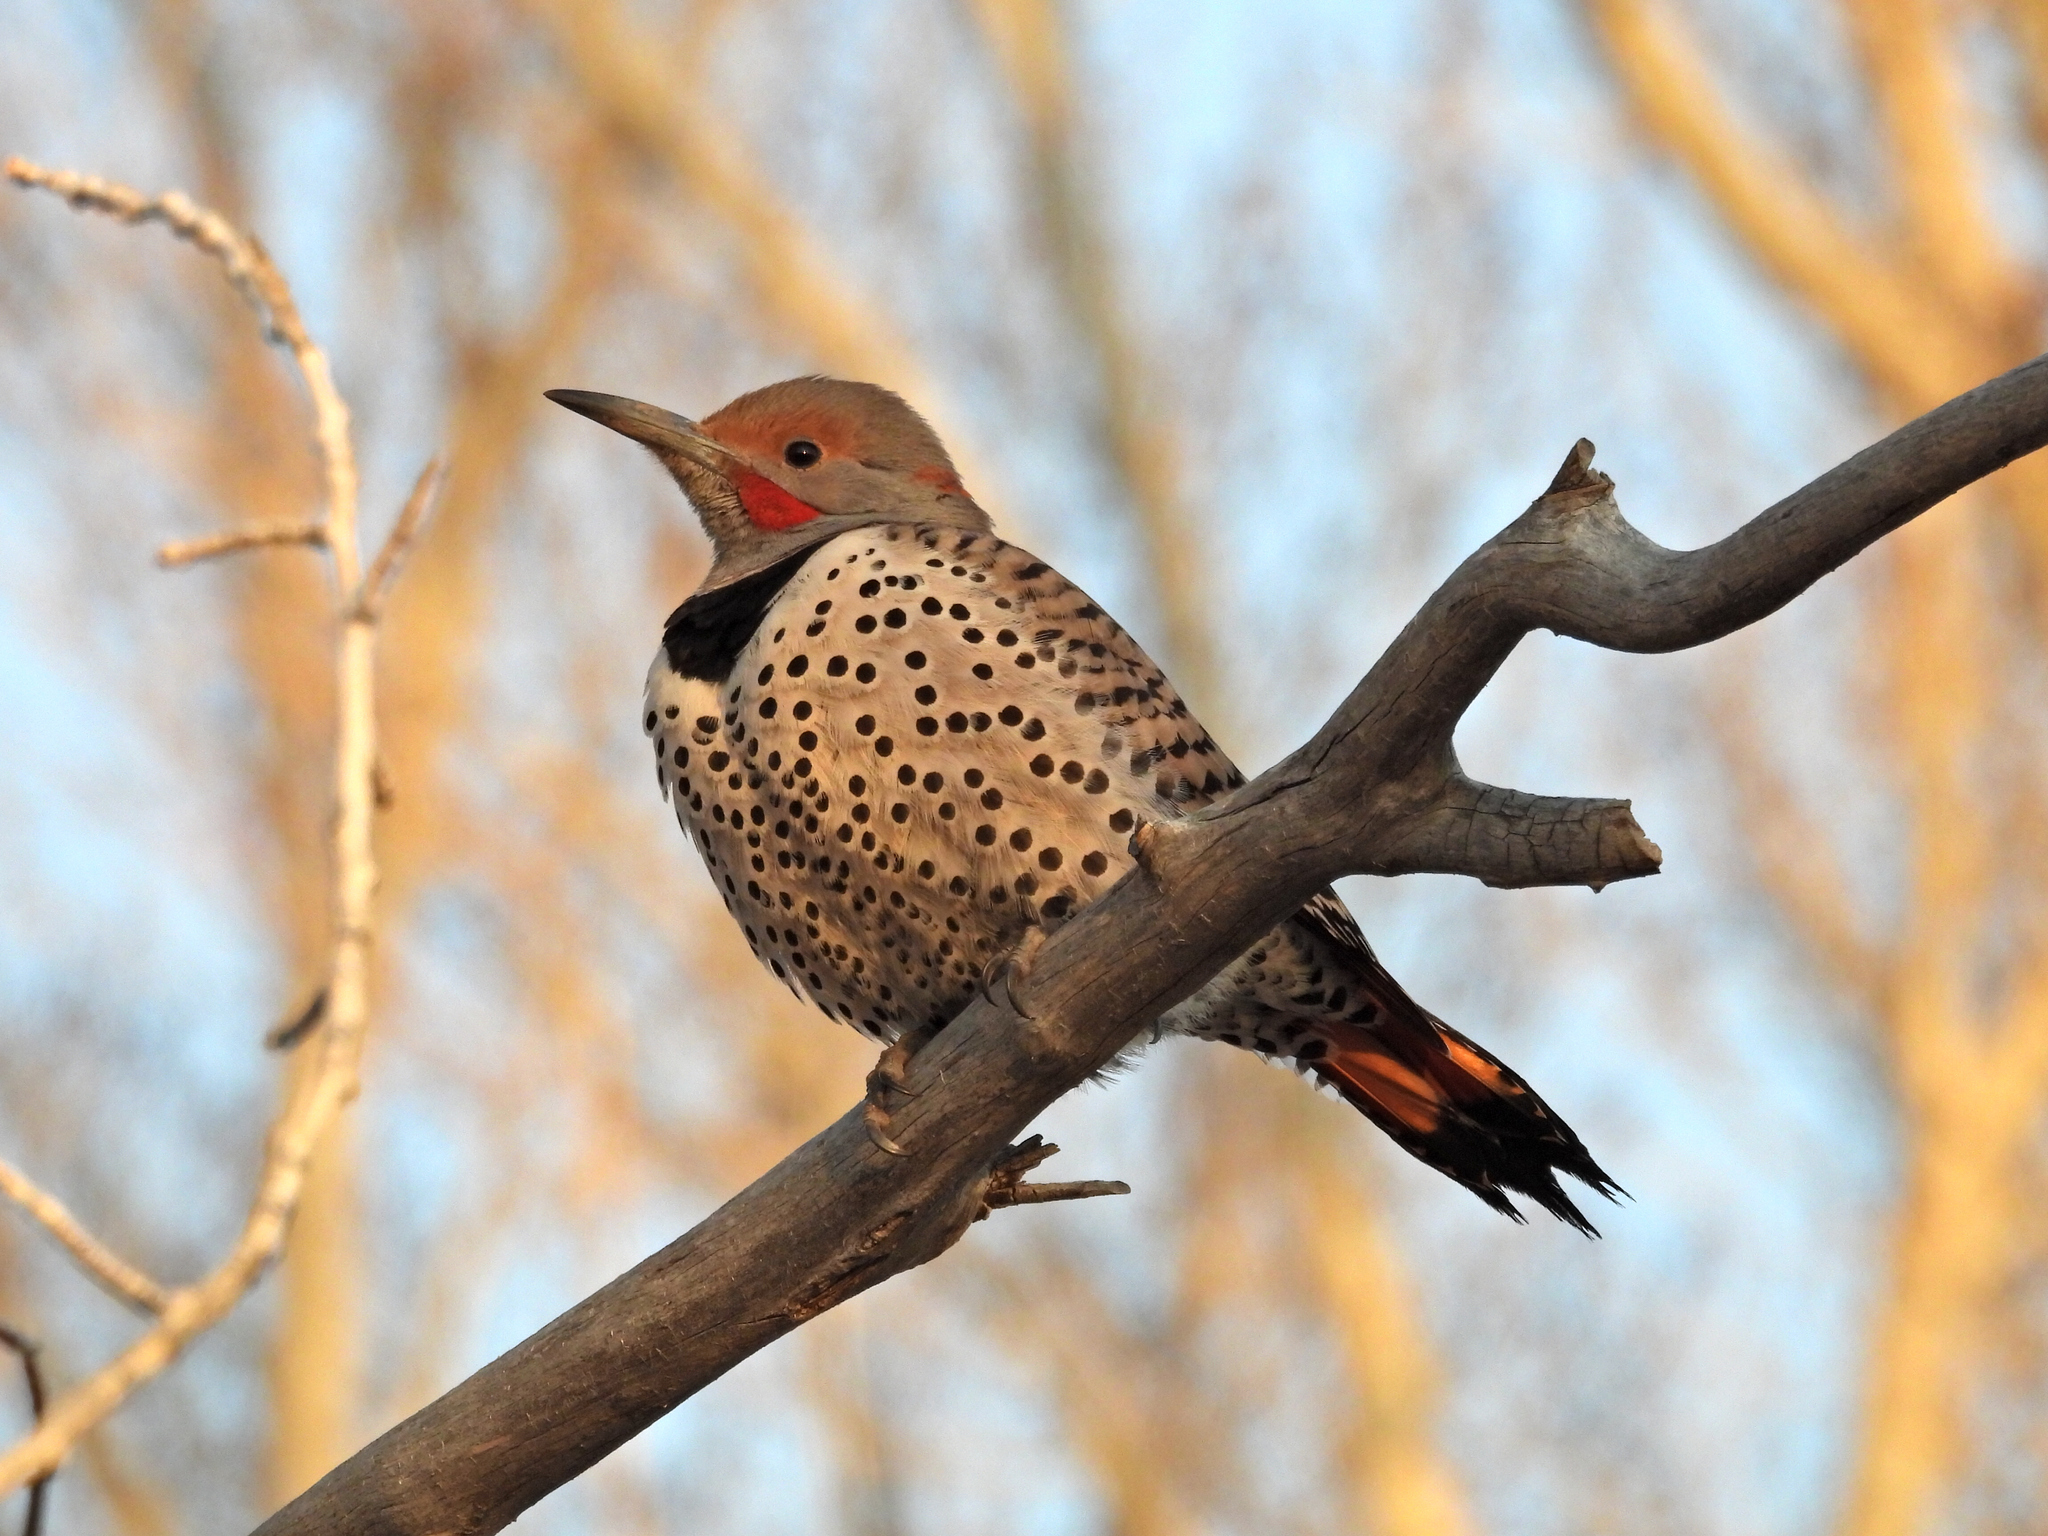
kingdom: Animalia
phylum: Chordata
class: Aves
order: Piciformes
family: Picidae
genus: Colaptes
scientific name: Colaptes auratus
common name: Northern flicker
